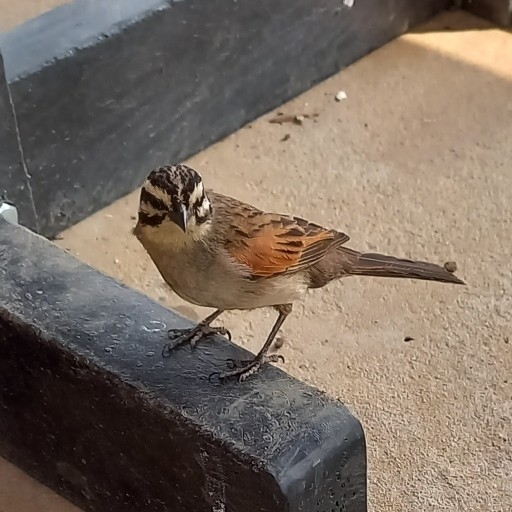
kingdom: Animalia
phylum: Chordata
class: Aves
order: Passeriformes
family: Emberizidae
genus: Emberiza
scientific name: Emberiza capensis
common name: Cape bunting
